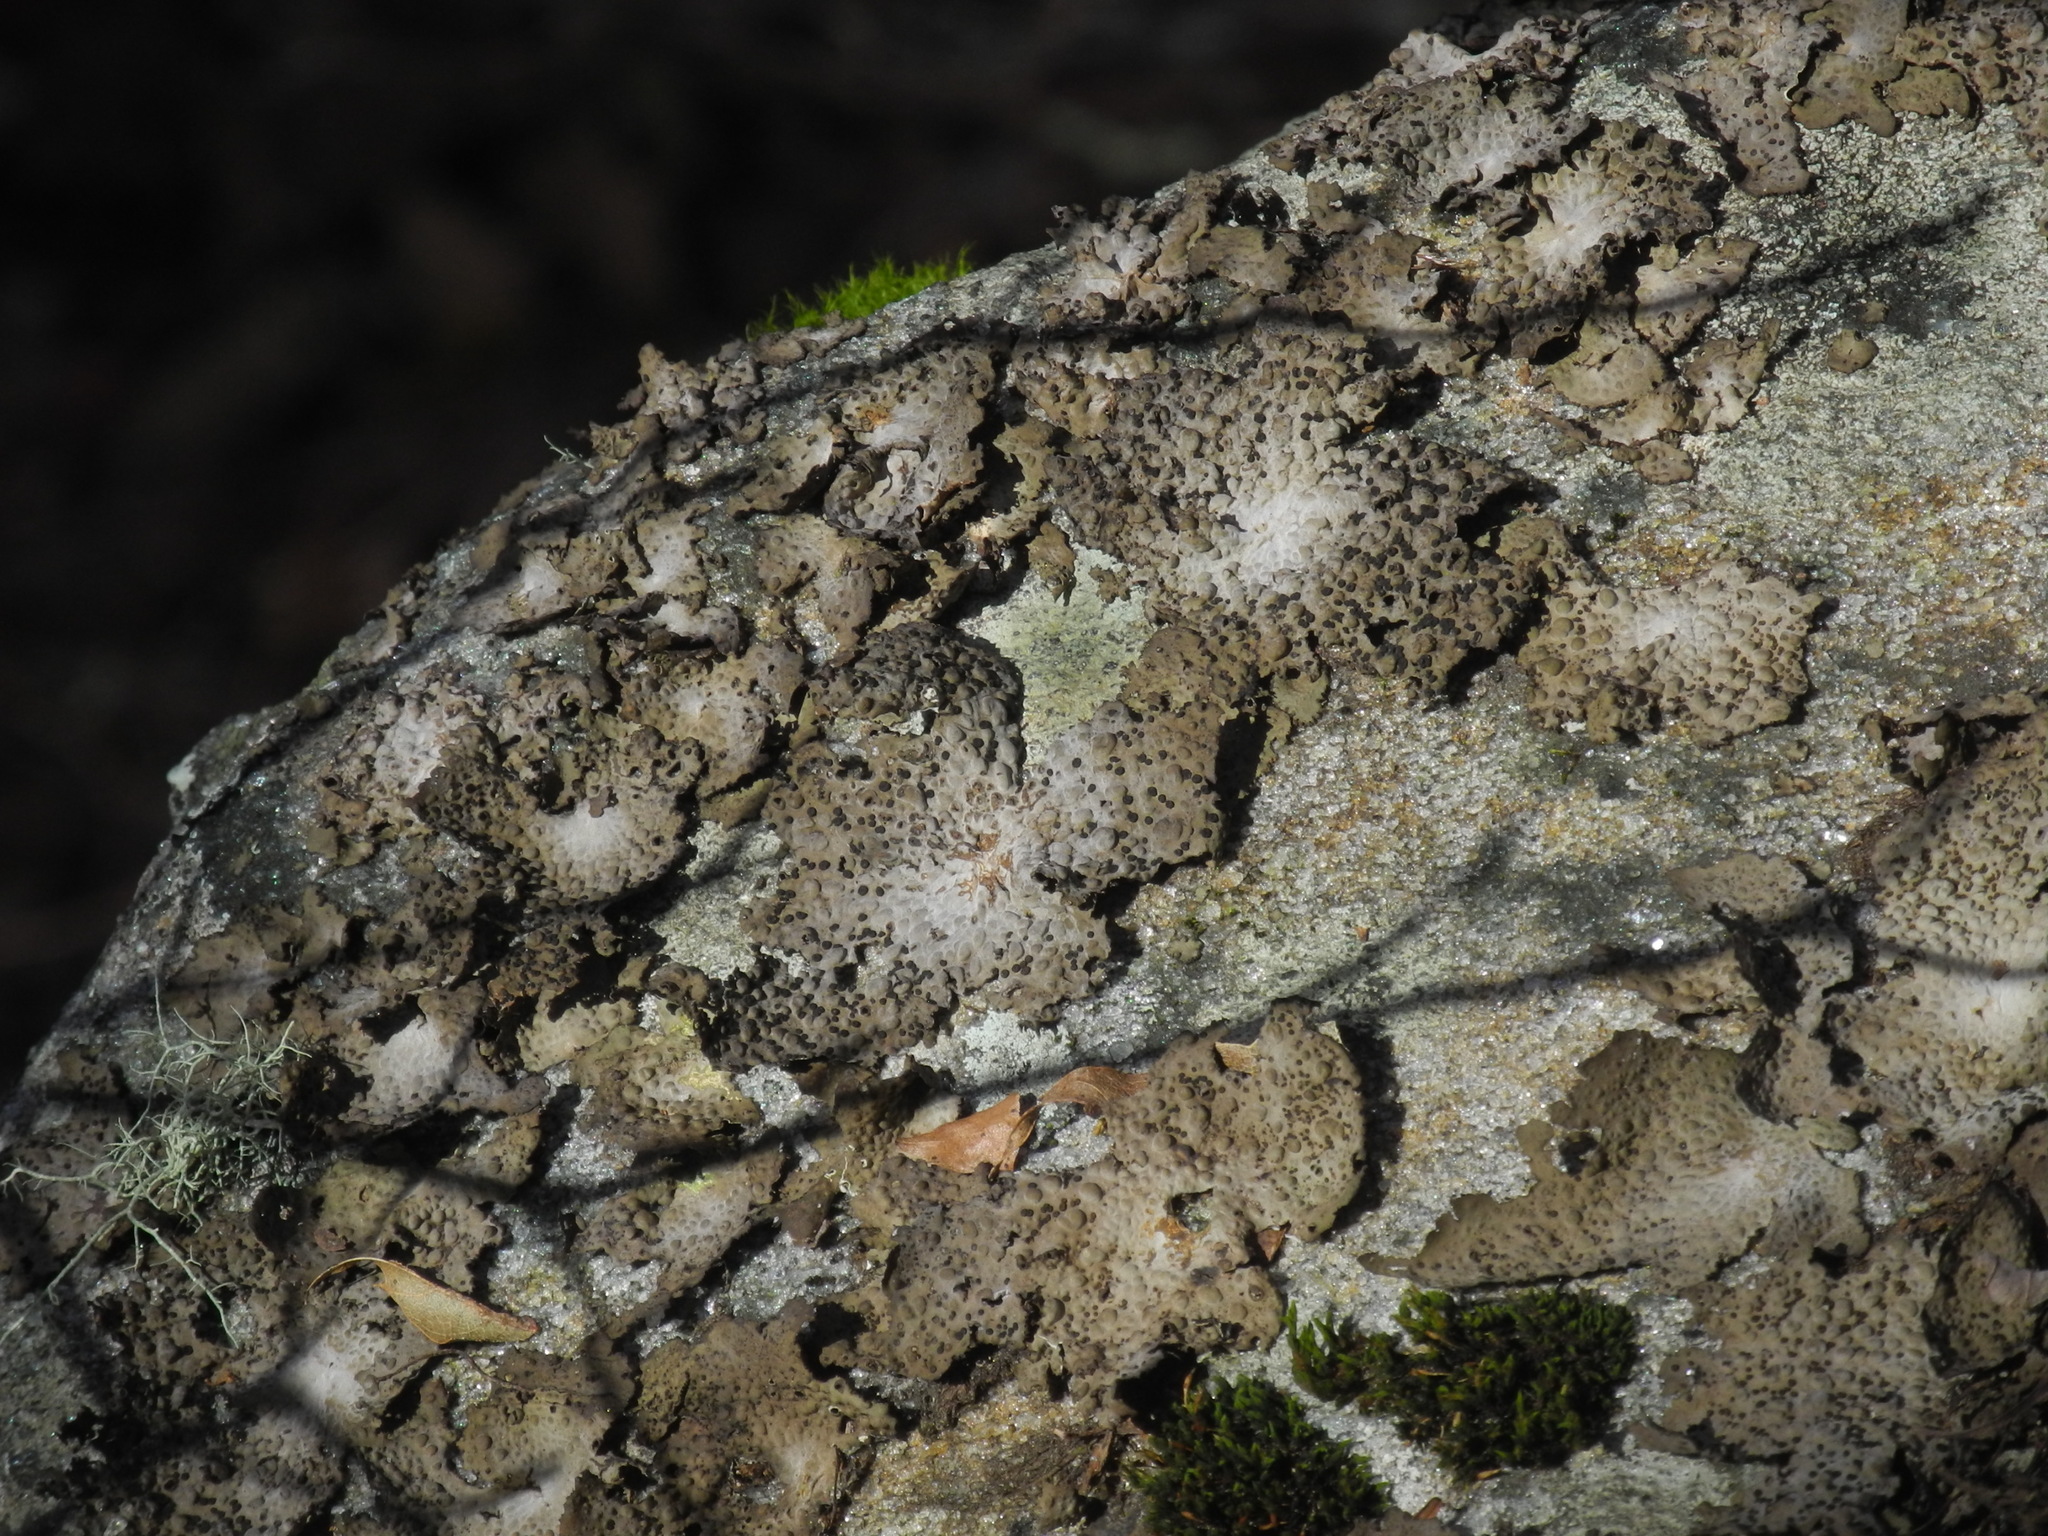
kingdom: Fungi
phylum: Ascomycota
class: Lecanoromycetes
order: Umbilicariales
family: Umbilicariaceae
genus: Lasallia
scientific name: Lasallia papulosa
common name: Common toadskin lichen
